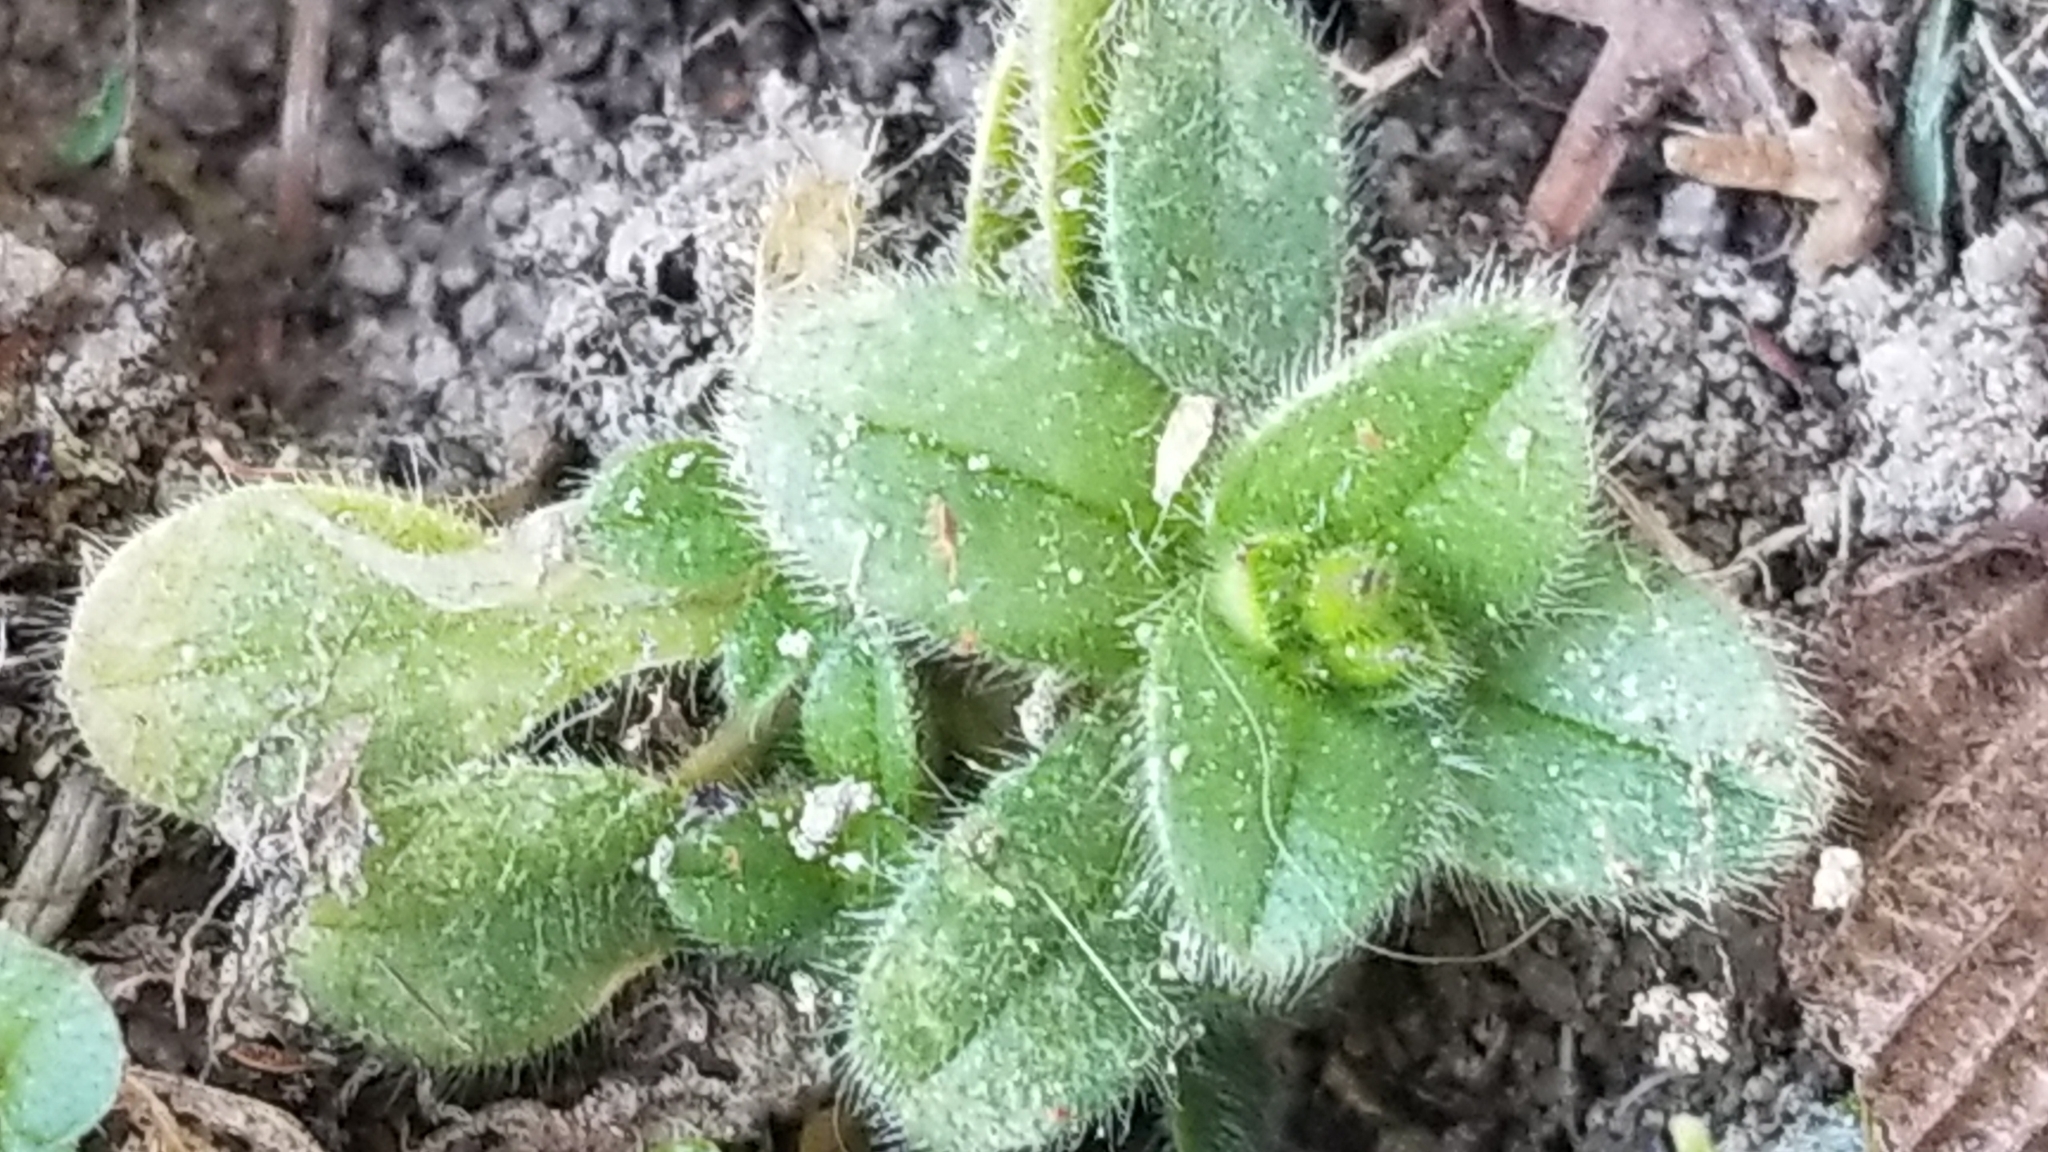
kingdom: Plantae
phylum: Tracheophyta
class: Magnoliopsida
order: Caryophyllales
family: Caryophyllaceae
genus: Cerastium
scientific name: Cerastium glomeratum
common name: Sticky chickweed
